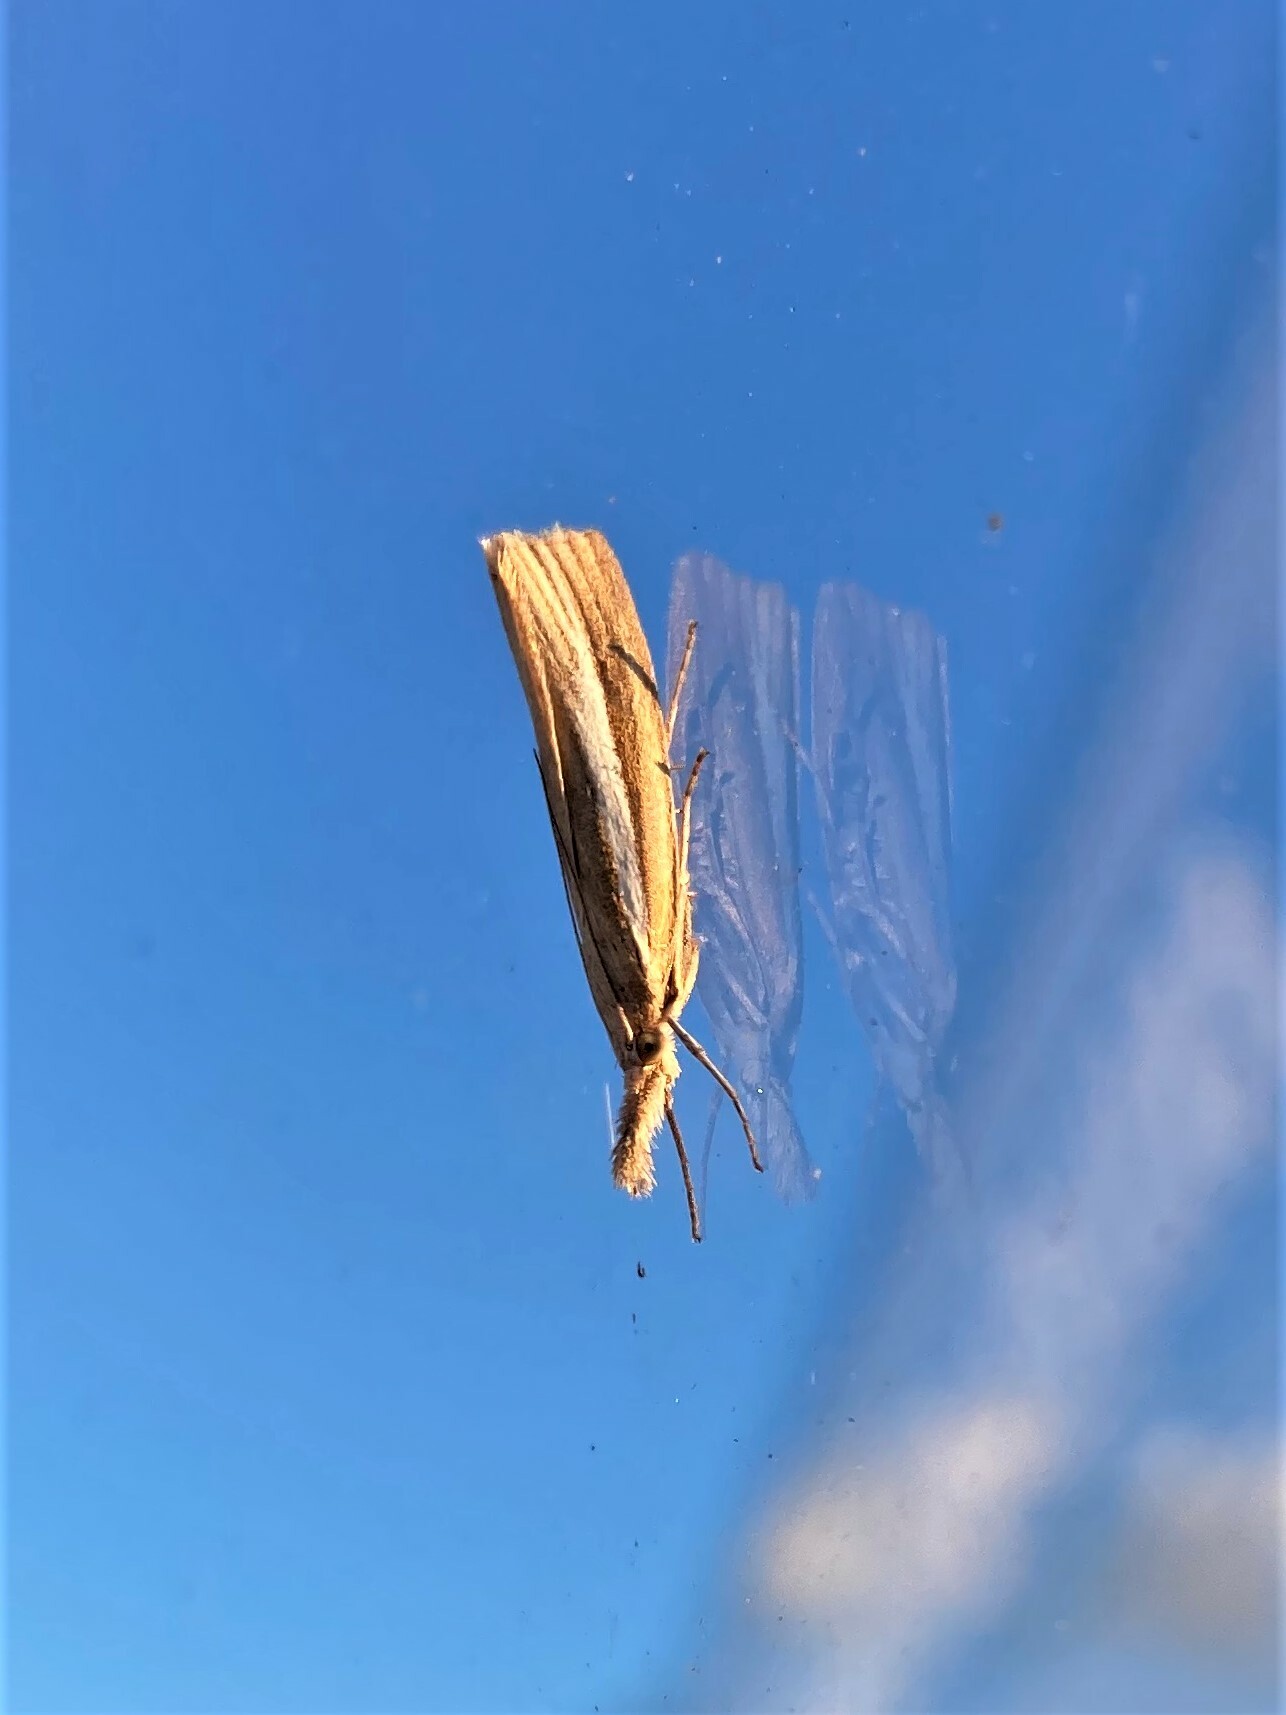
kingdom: Animalia
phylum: Arthropoda
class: Insecta
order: Lepidoptera
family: Crambidae
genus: Agriphila
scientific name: Agriphila tristellus
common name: Common grass-veneer
